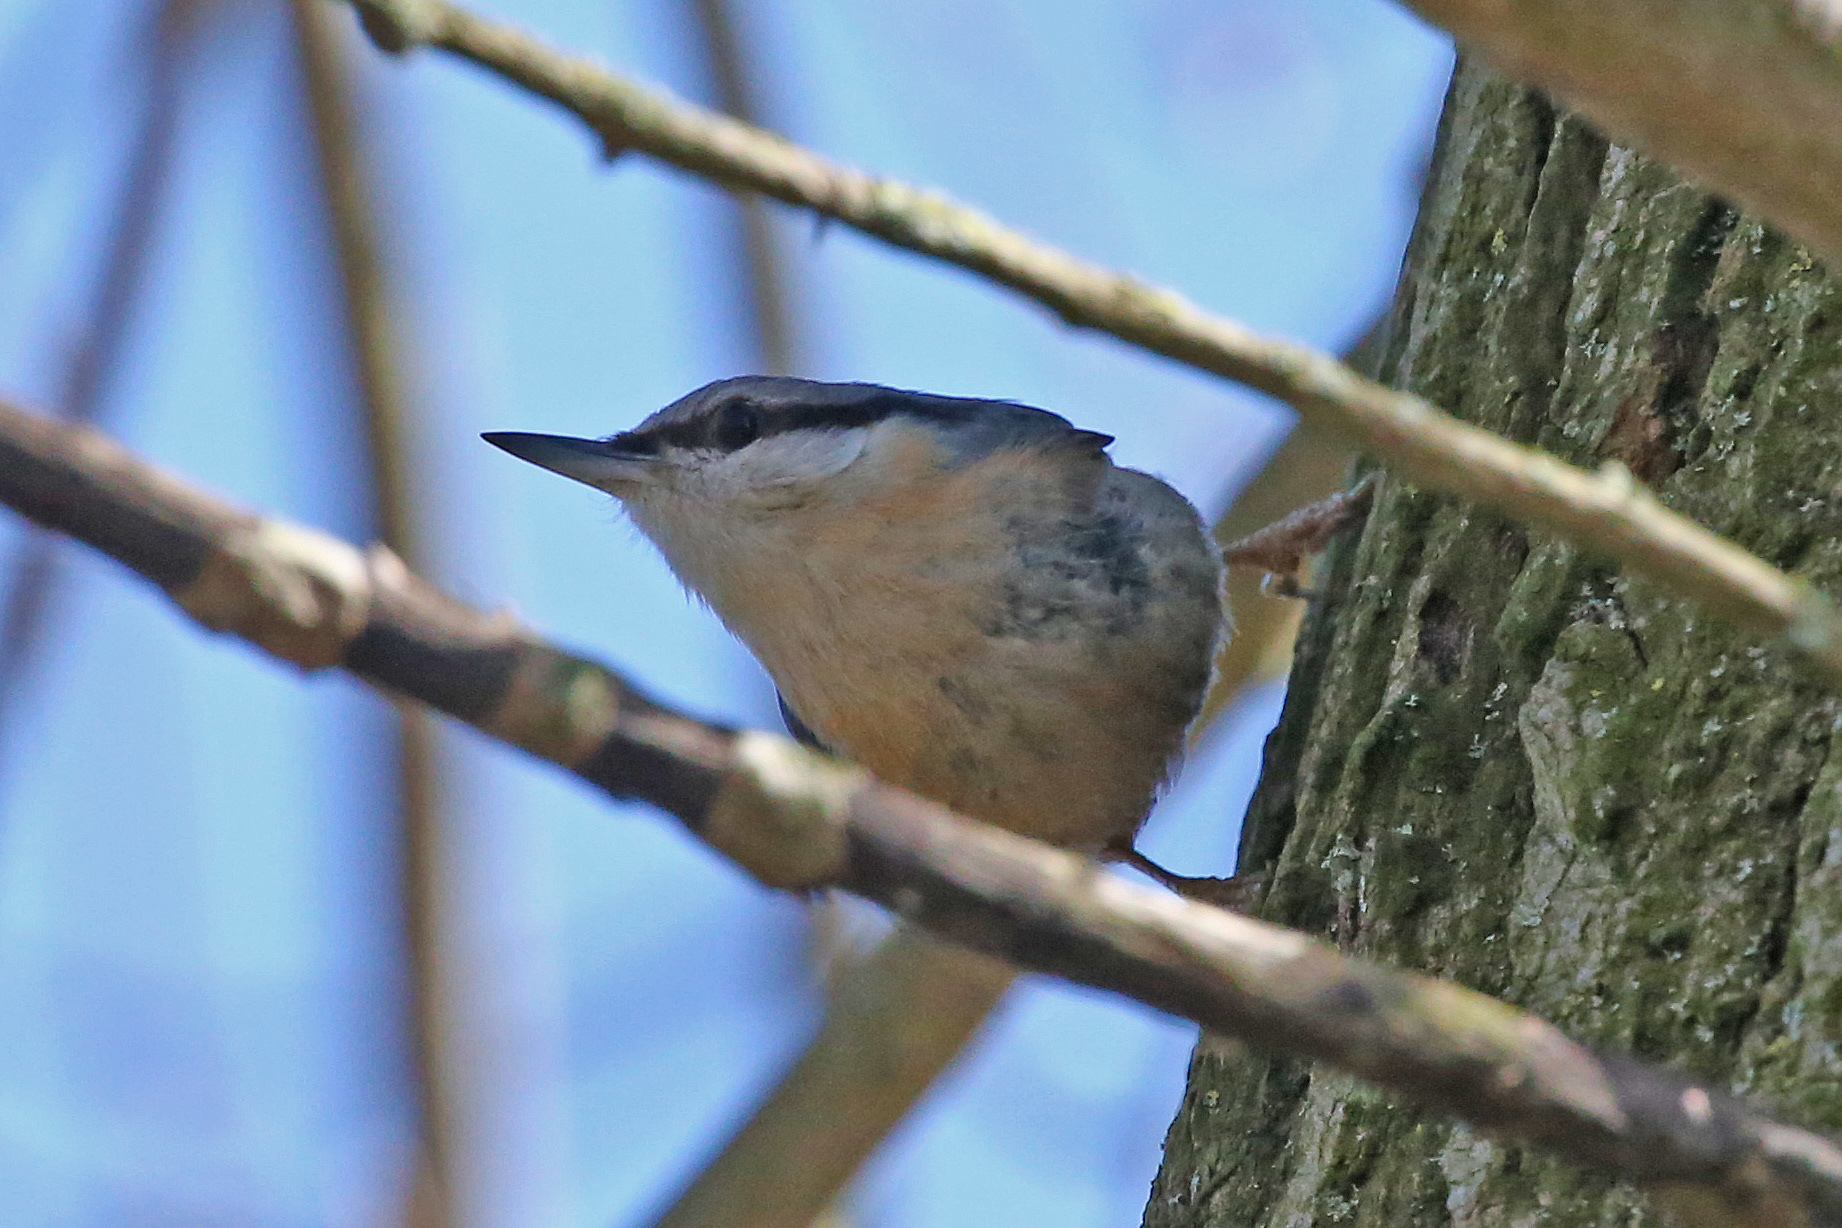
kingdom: Animalia
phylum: Chordata
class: Aves
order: Passeriformes
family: Sittidae
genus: Sitta
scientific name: Sitta europaea
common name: Eurasian nuthatch
